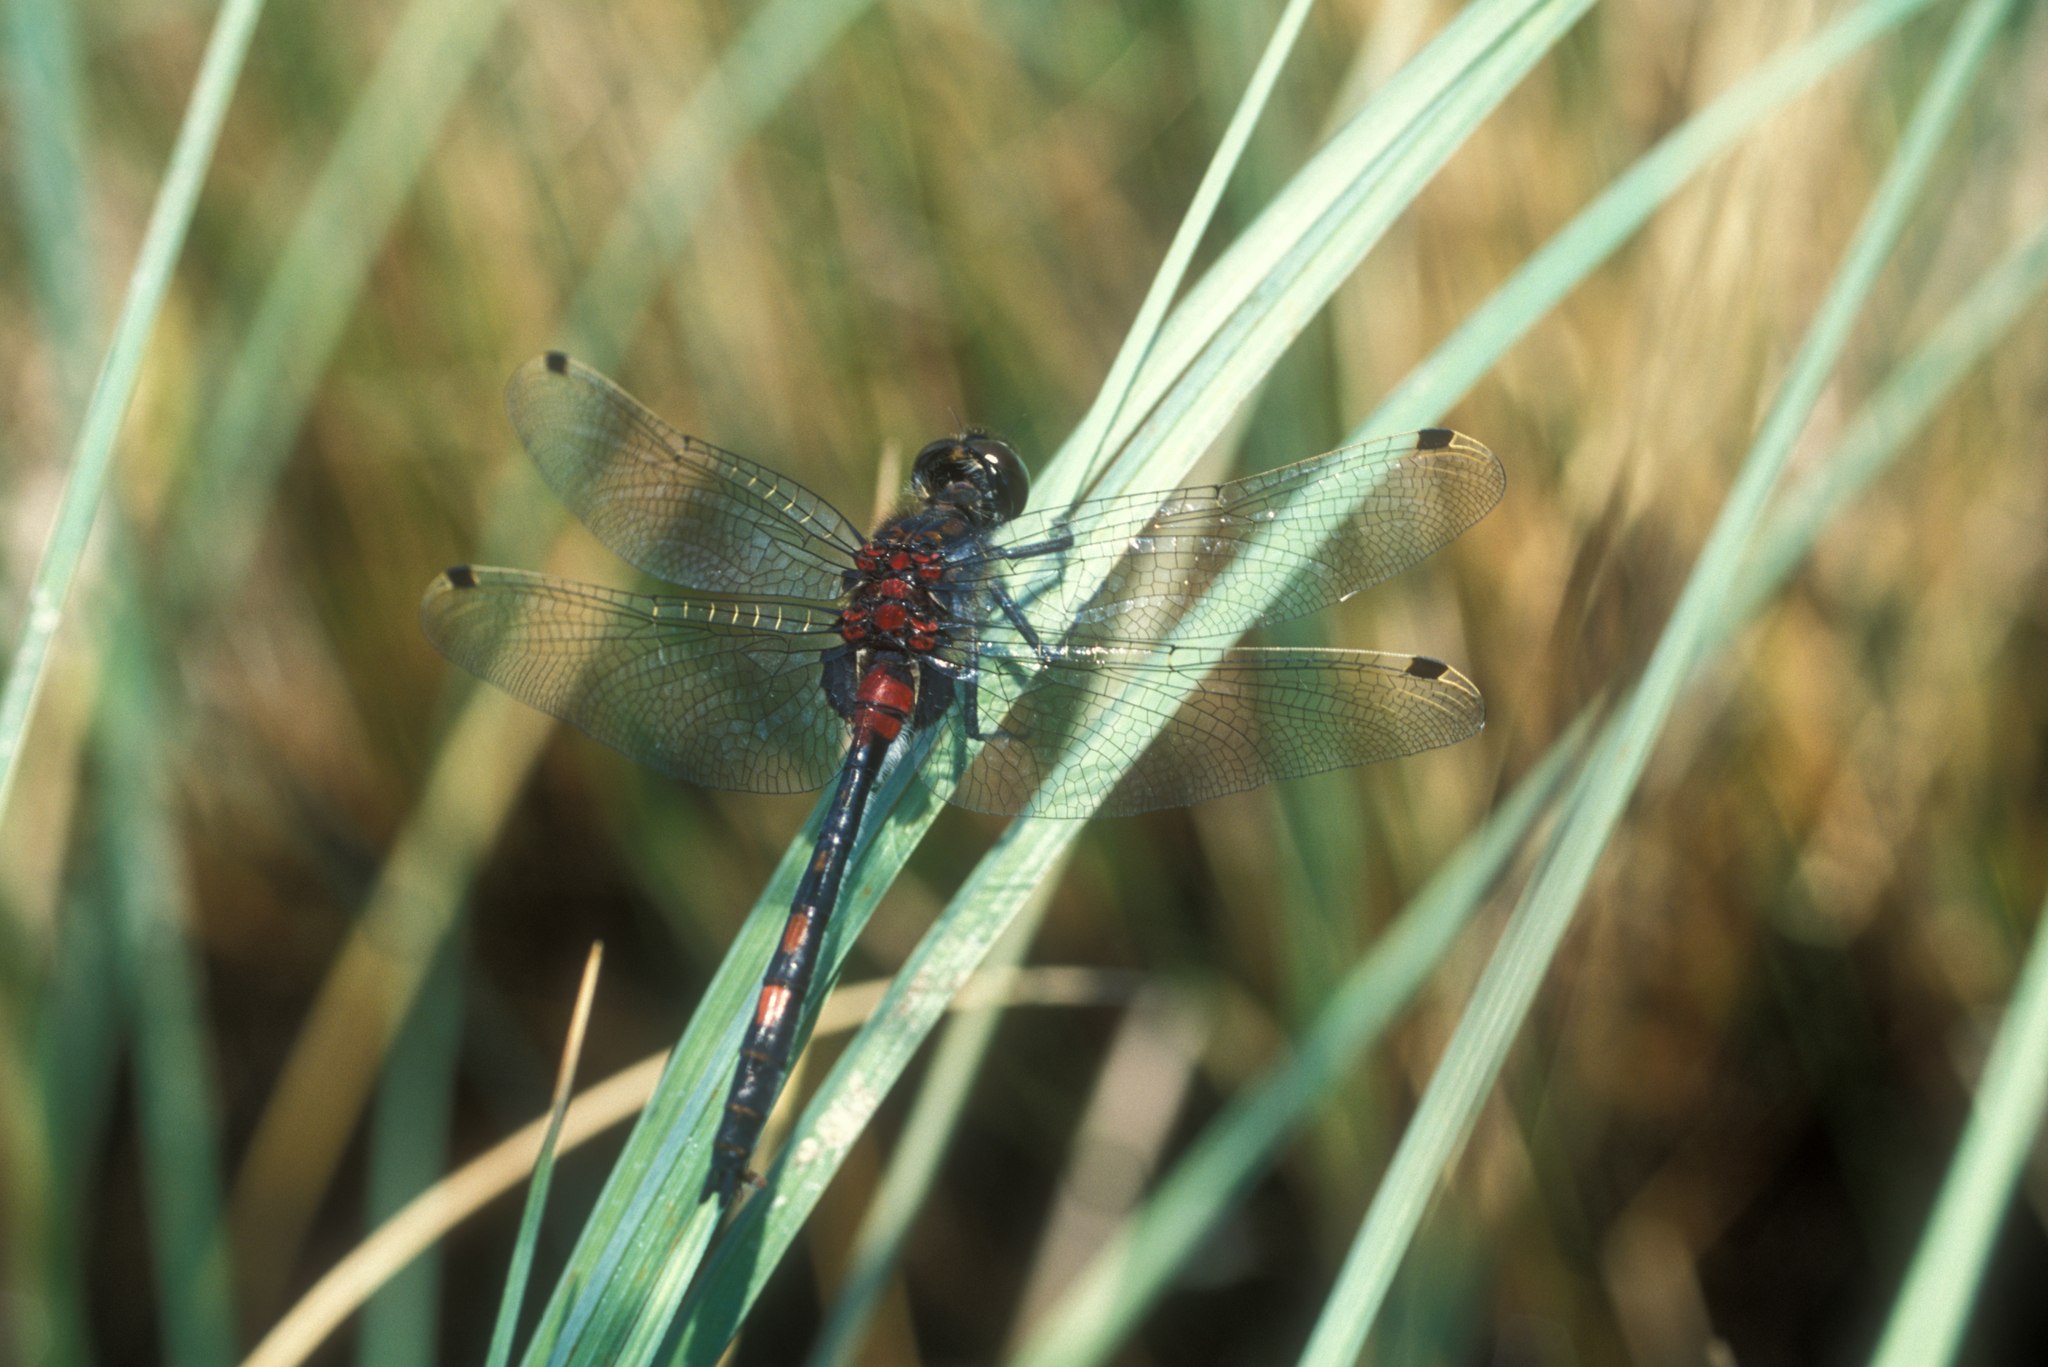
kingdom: Animalia
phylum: Arthropoda
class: Insecta
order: Odonata
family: Libellulidae
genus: Leucorrhinia
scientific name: Leucorrhinia dubia
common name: White-faced darter
